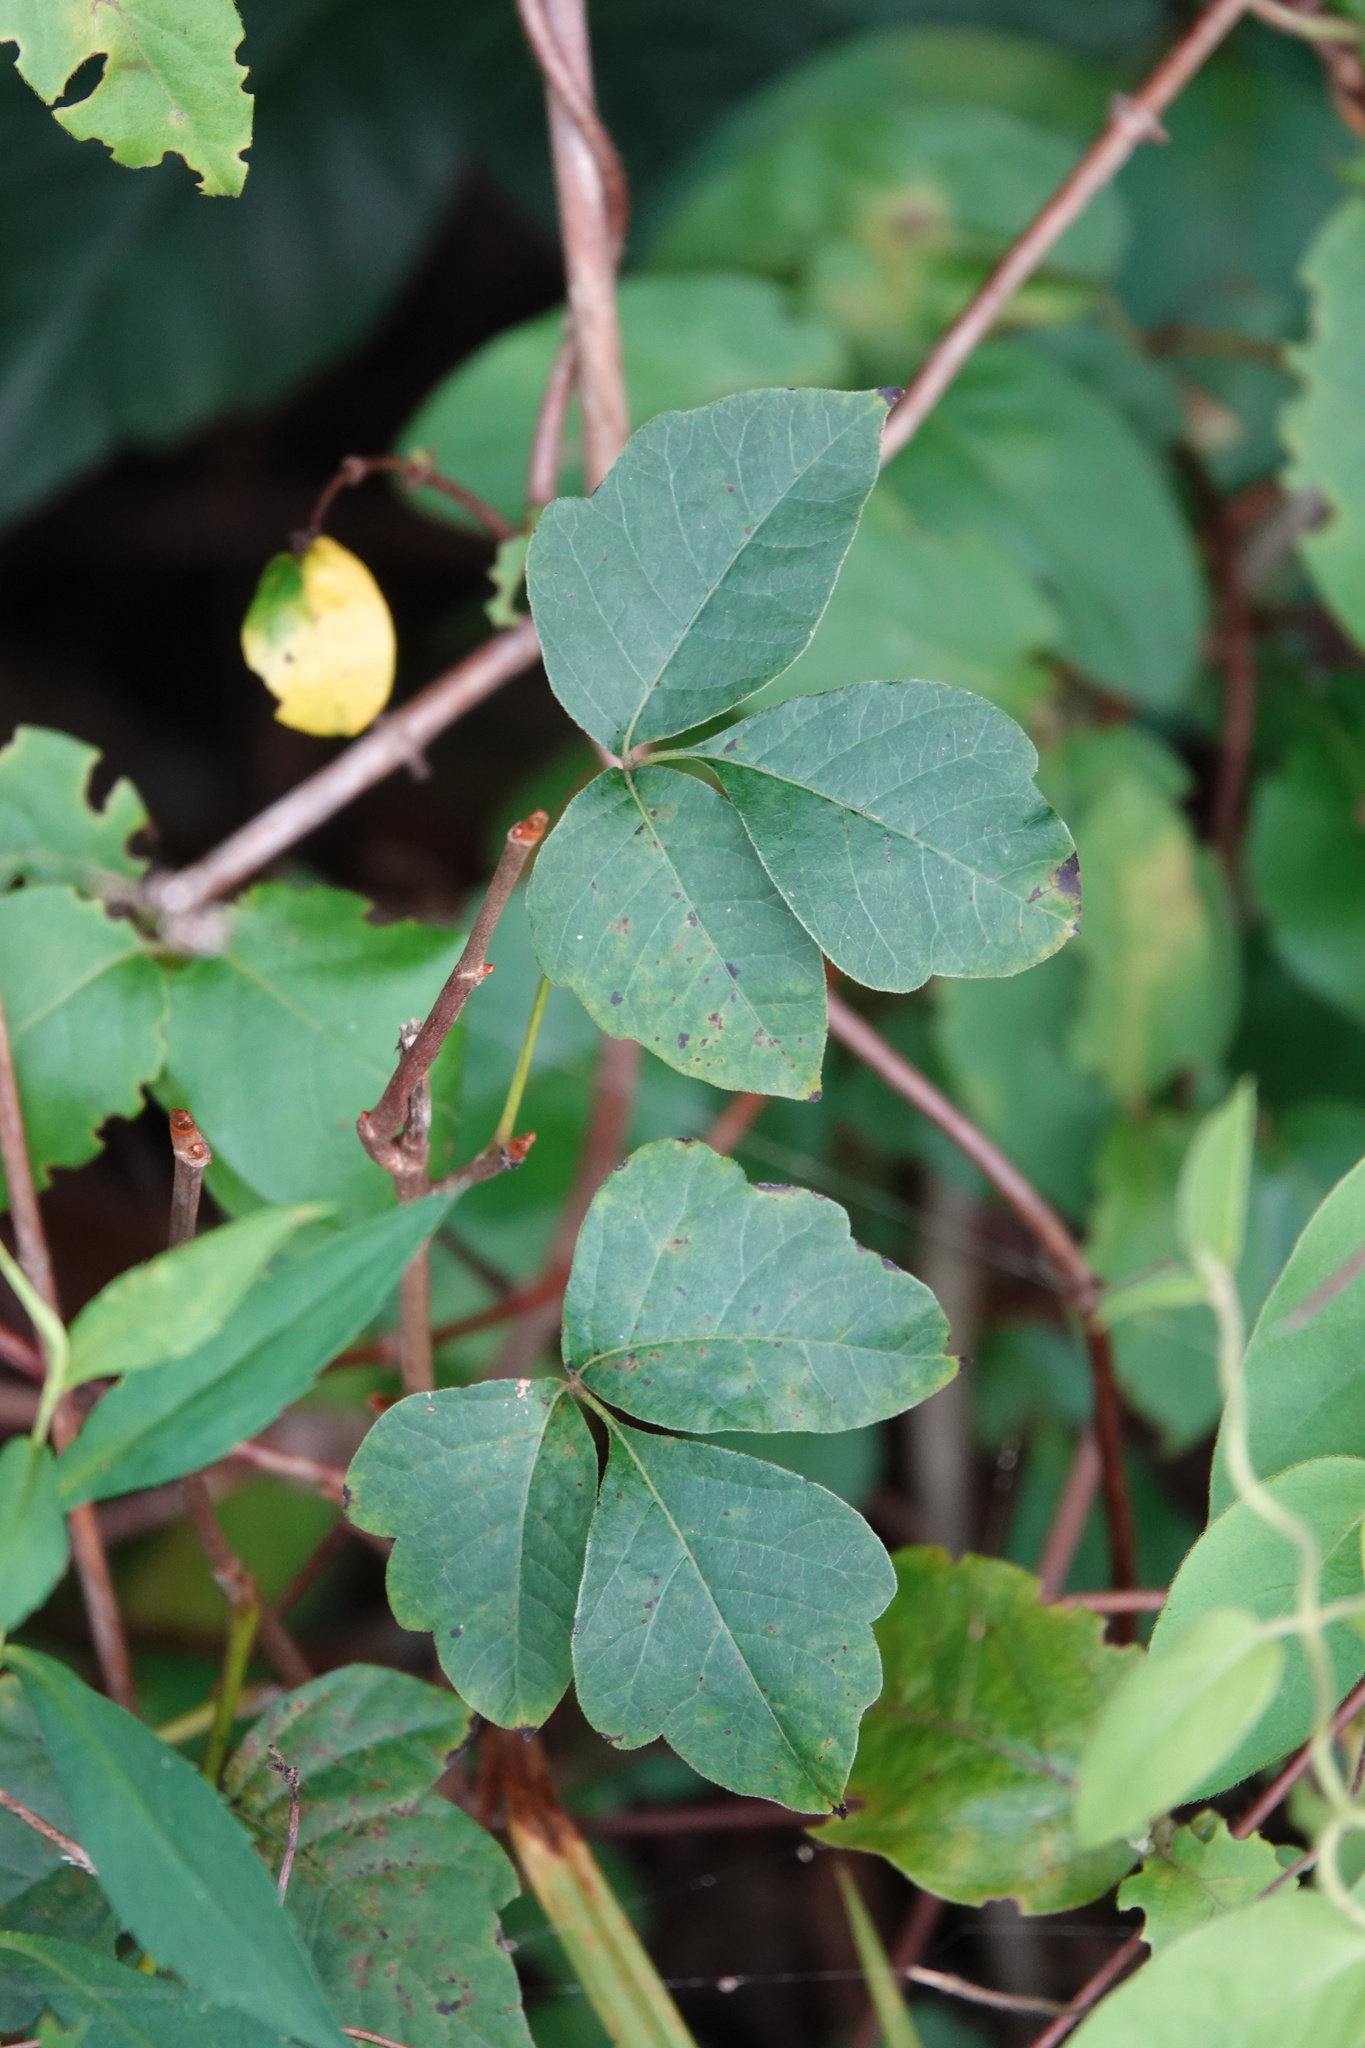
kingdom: Plantae
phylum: Tracheophyta
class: Magnoliopsida
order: Sapindales
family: Anacardiaceae
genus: Toxicodendron
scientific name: Toxicodendron radicans
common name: Poison ivy
